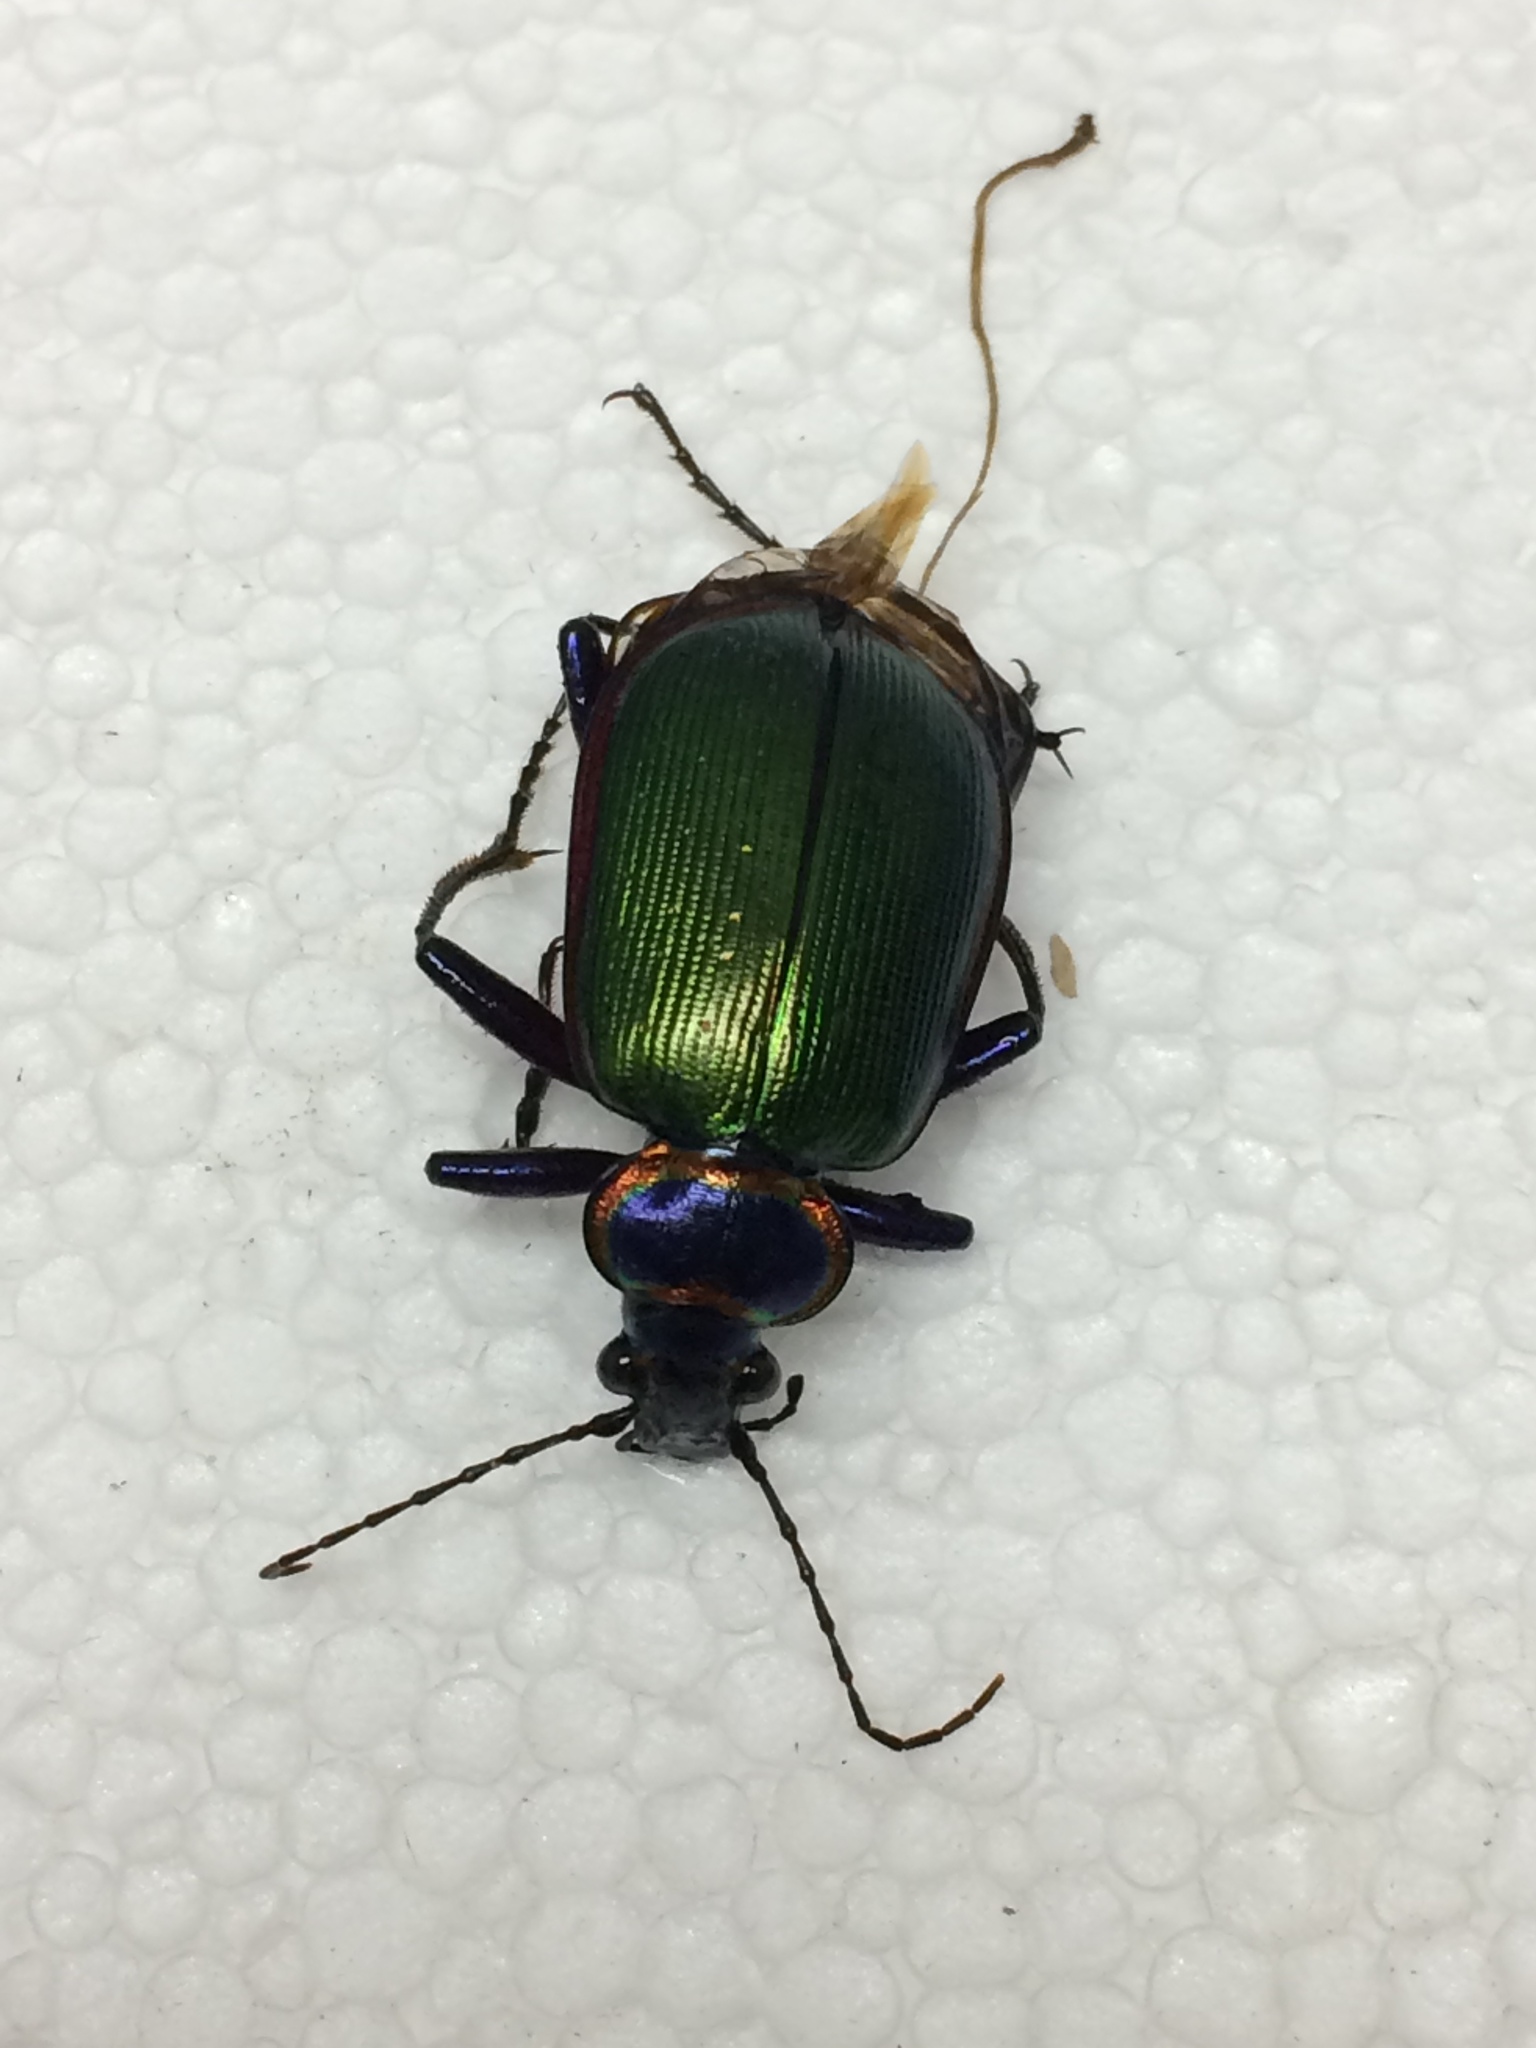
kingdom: Animalia
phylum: Arthropoda
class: Insecta
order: Coleoptera
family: Carabidae
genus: Calosoma
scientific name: Calosoma scrutator
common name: Fiery searcher beetle
